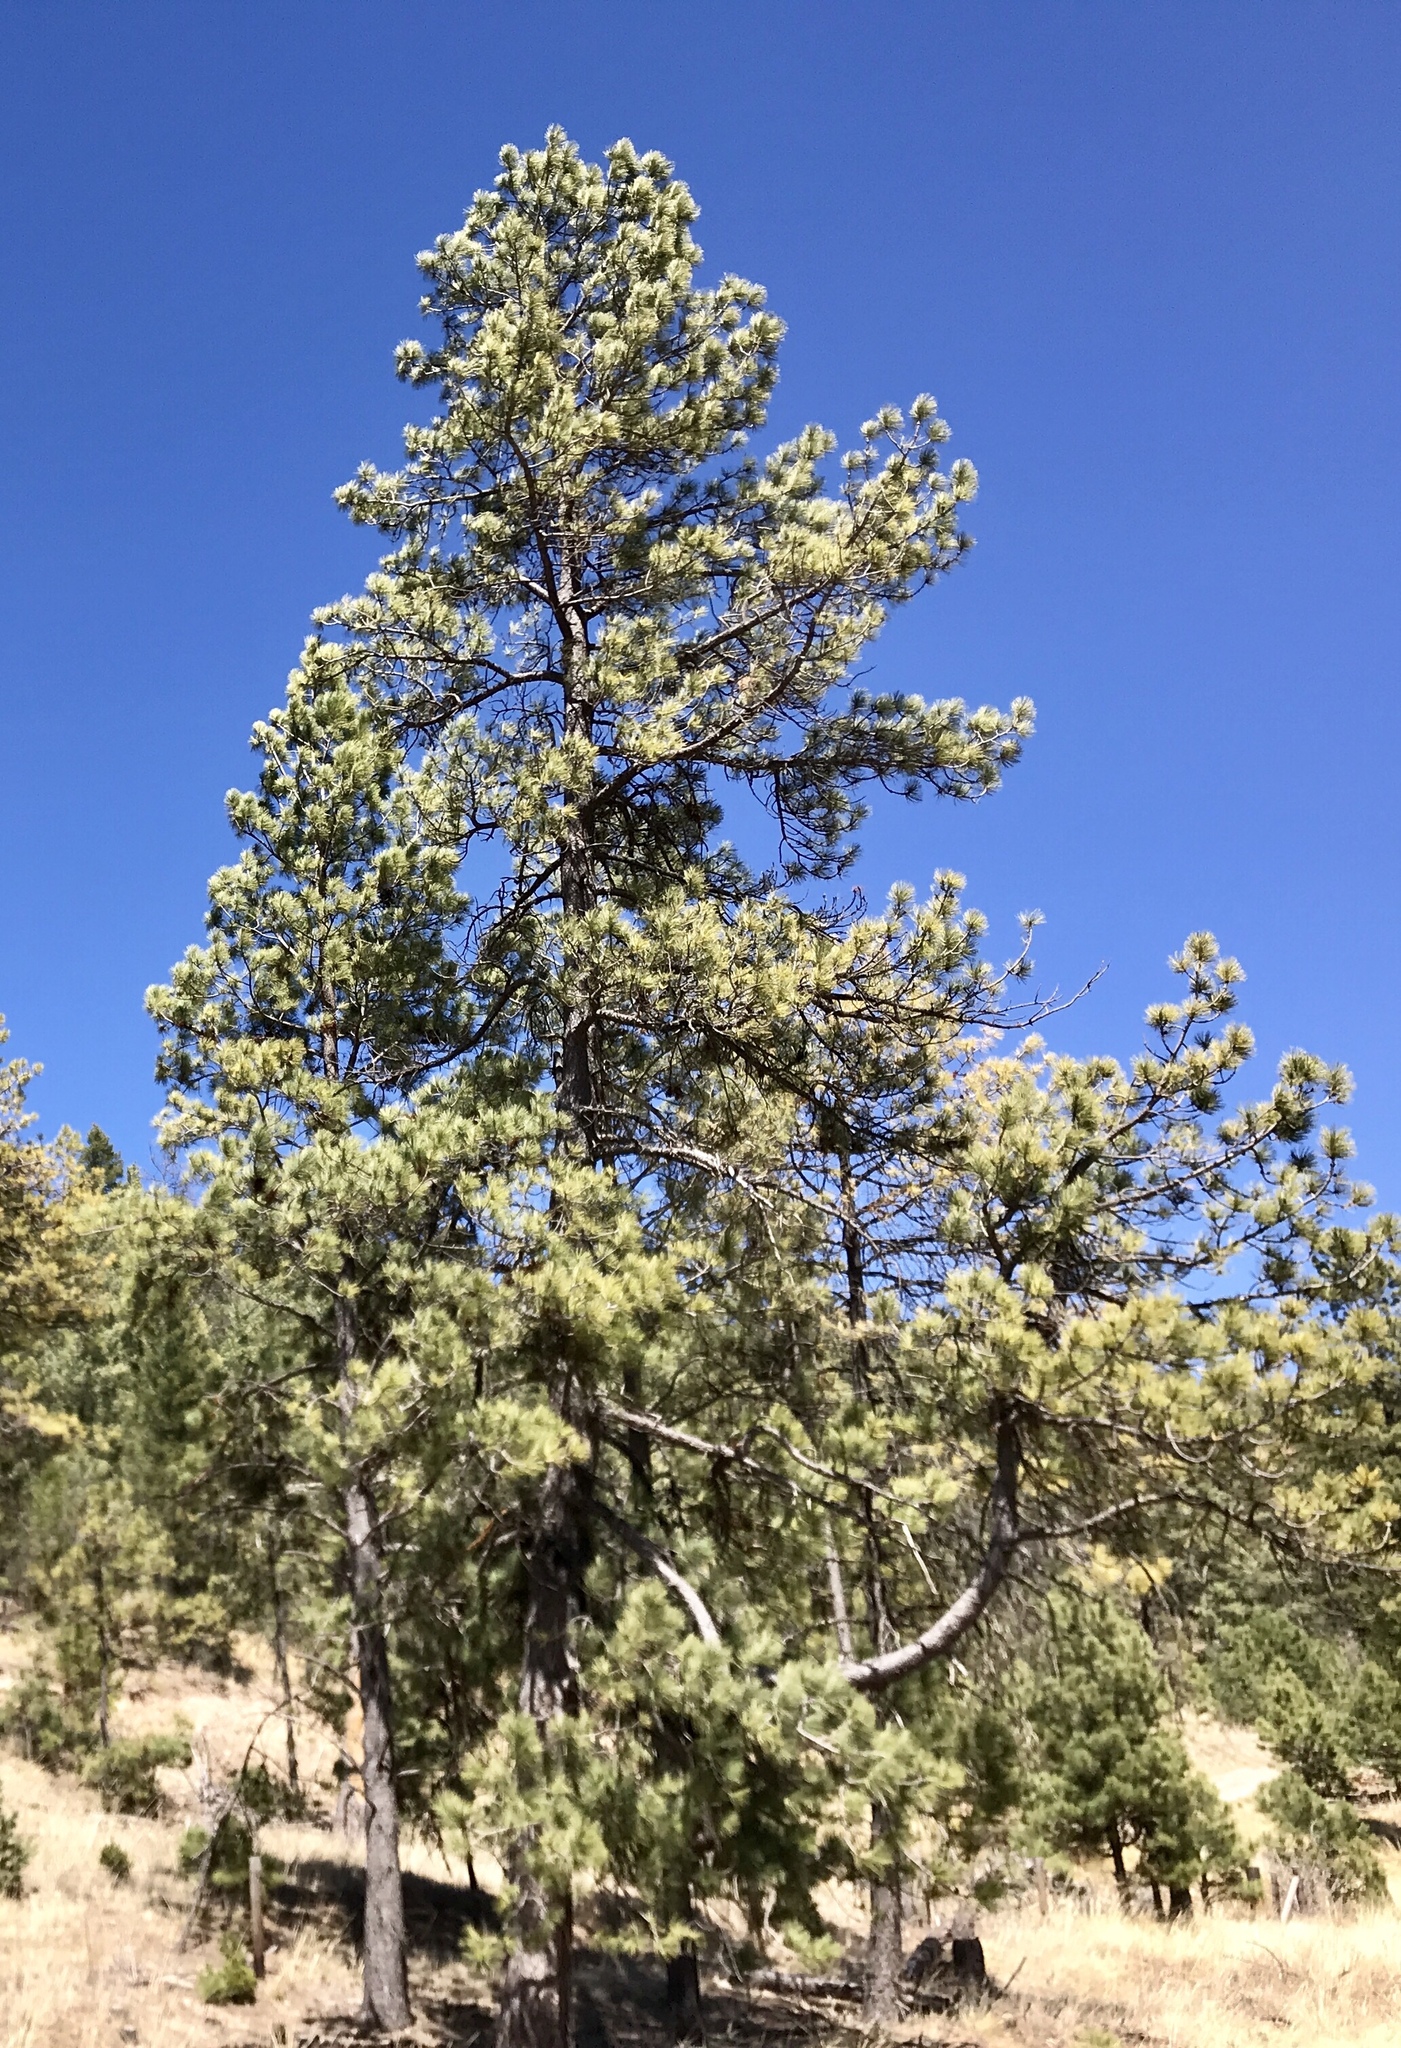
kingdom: Plantae
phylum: Tracheophyta
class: Pinopsida
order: Pinales
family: Pinaceae
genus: Pinus
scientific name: Pinus strobiformis
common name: Southwestern white pine
